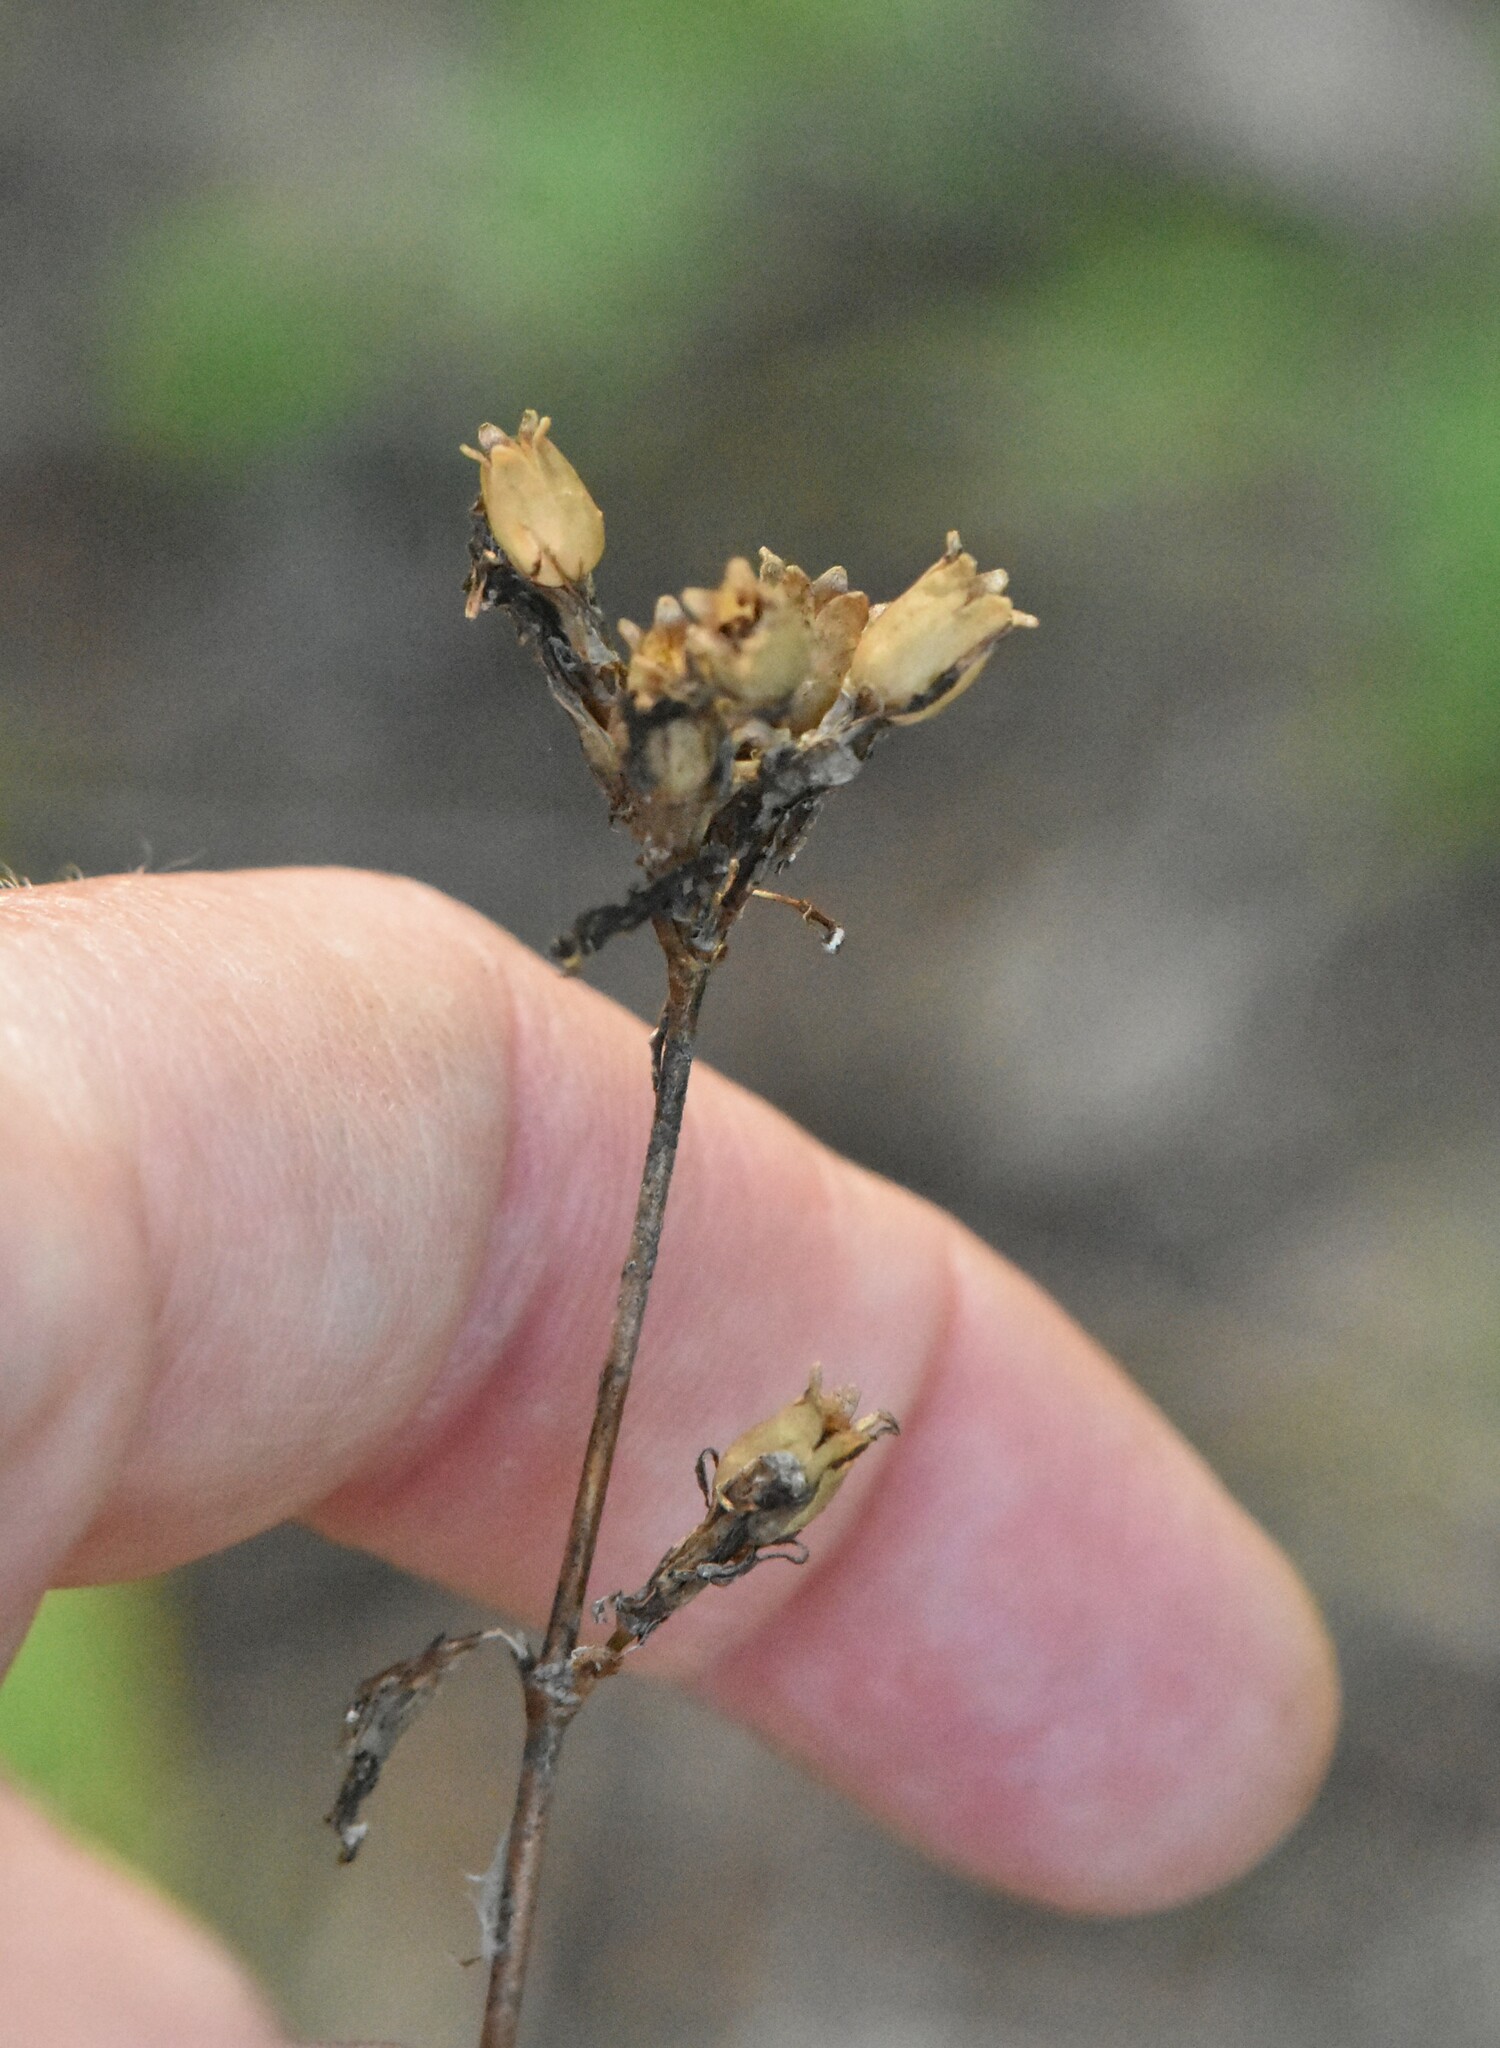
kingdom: Plantae
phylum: Tracheophyta
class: Magnoliopsida
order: Caryophyllales
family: Caryophyllaceae
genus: Viscaria
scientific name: Viscaria vulgaris
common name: Clammy campion
